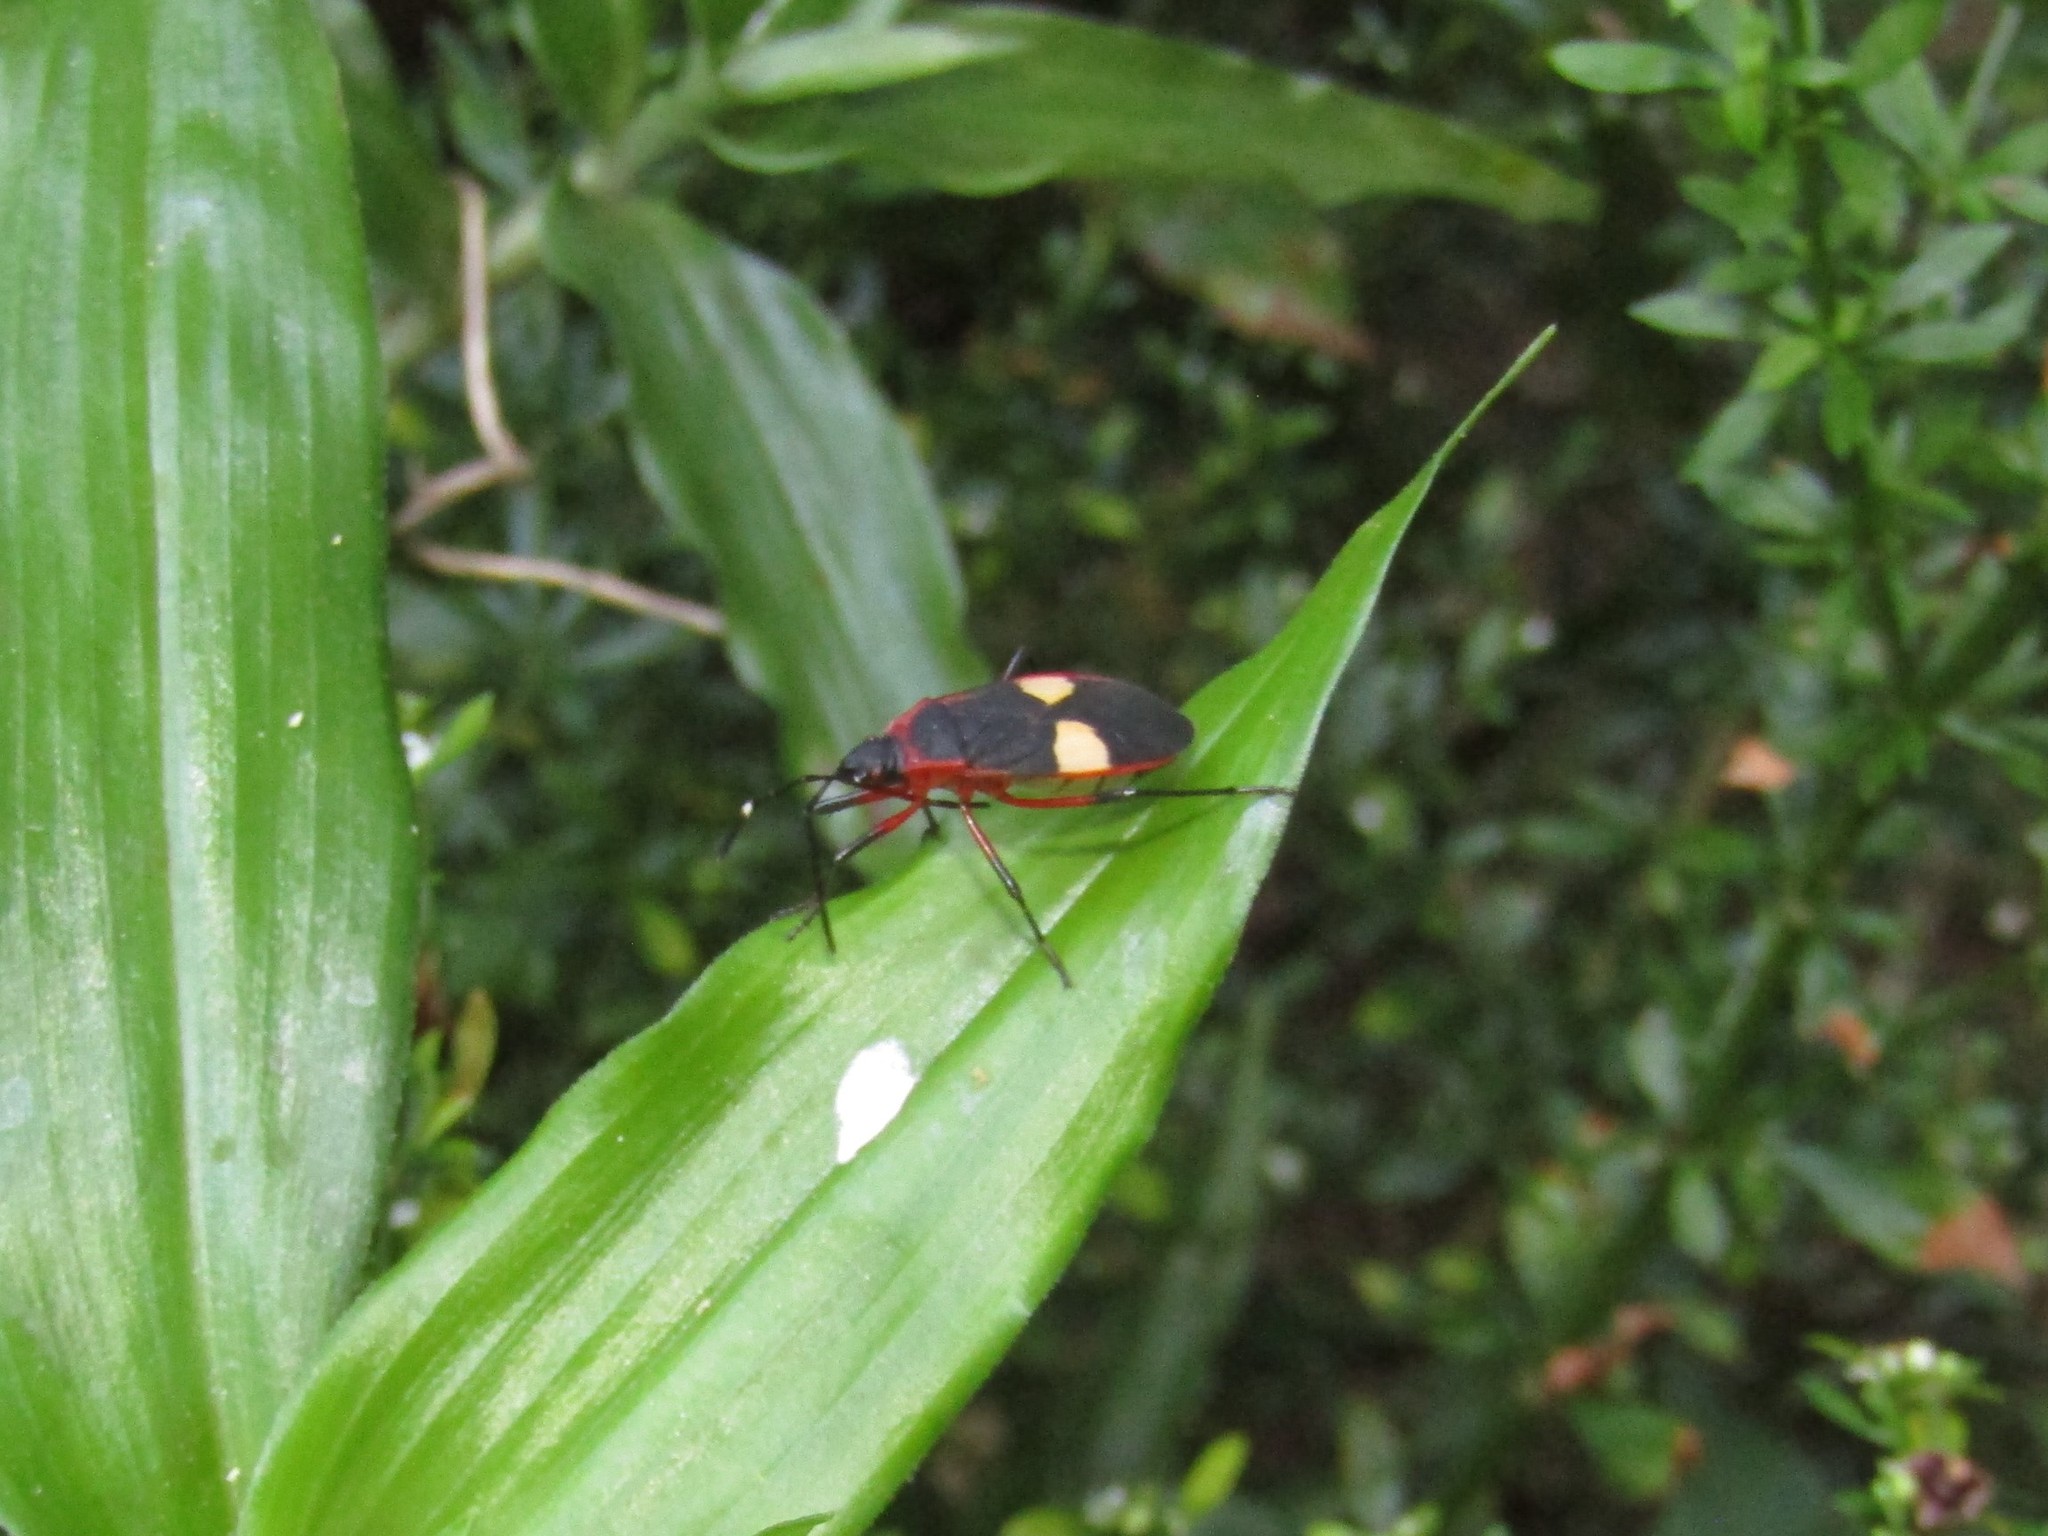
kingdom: Animalia
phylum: Arthropoda
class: Insecta
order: Hemiptera
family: Pyrrhocoridae
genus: Dysdercus
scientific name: Dysdercus albofasciatus
